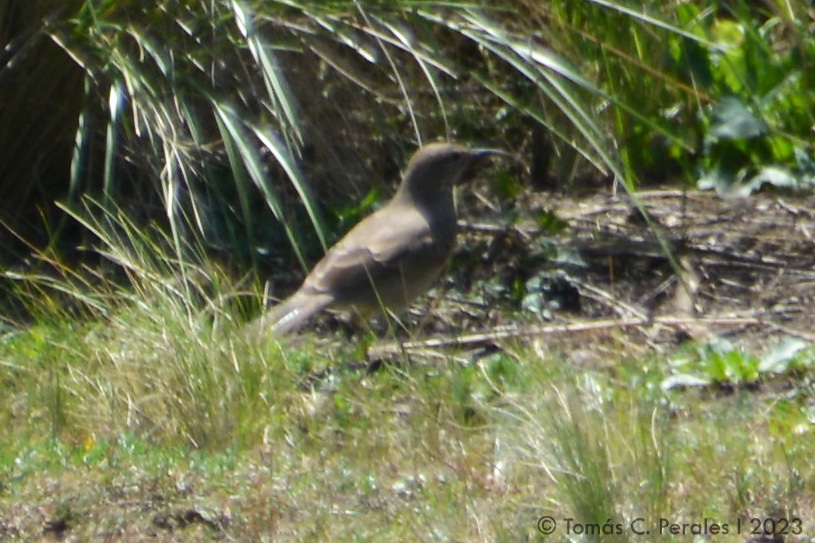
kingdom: Animalia
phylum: Chordata
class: Aves
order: Passeriformes
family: Furnariidae
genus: Upucerthia
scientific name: Upucerthia dumetaria
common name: Scale-throated earthcreeper
